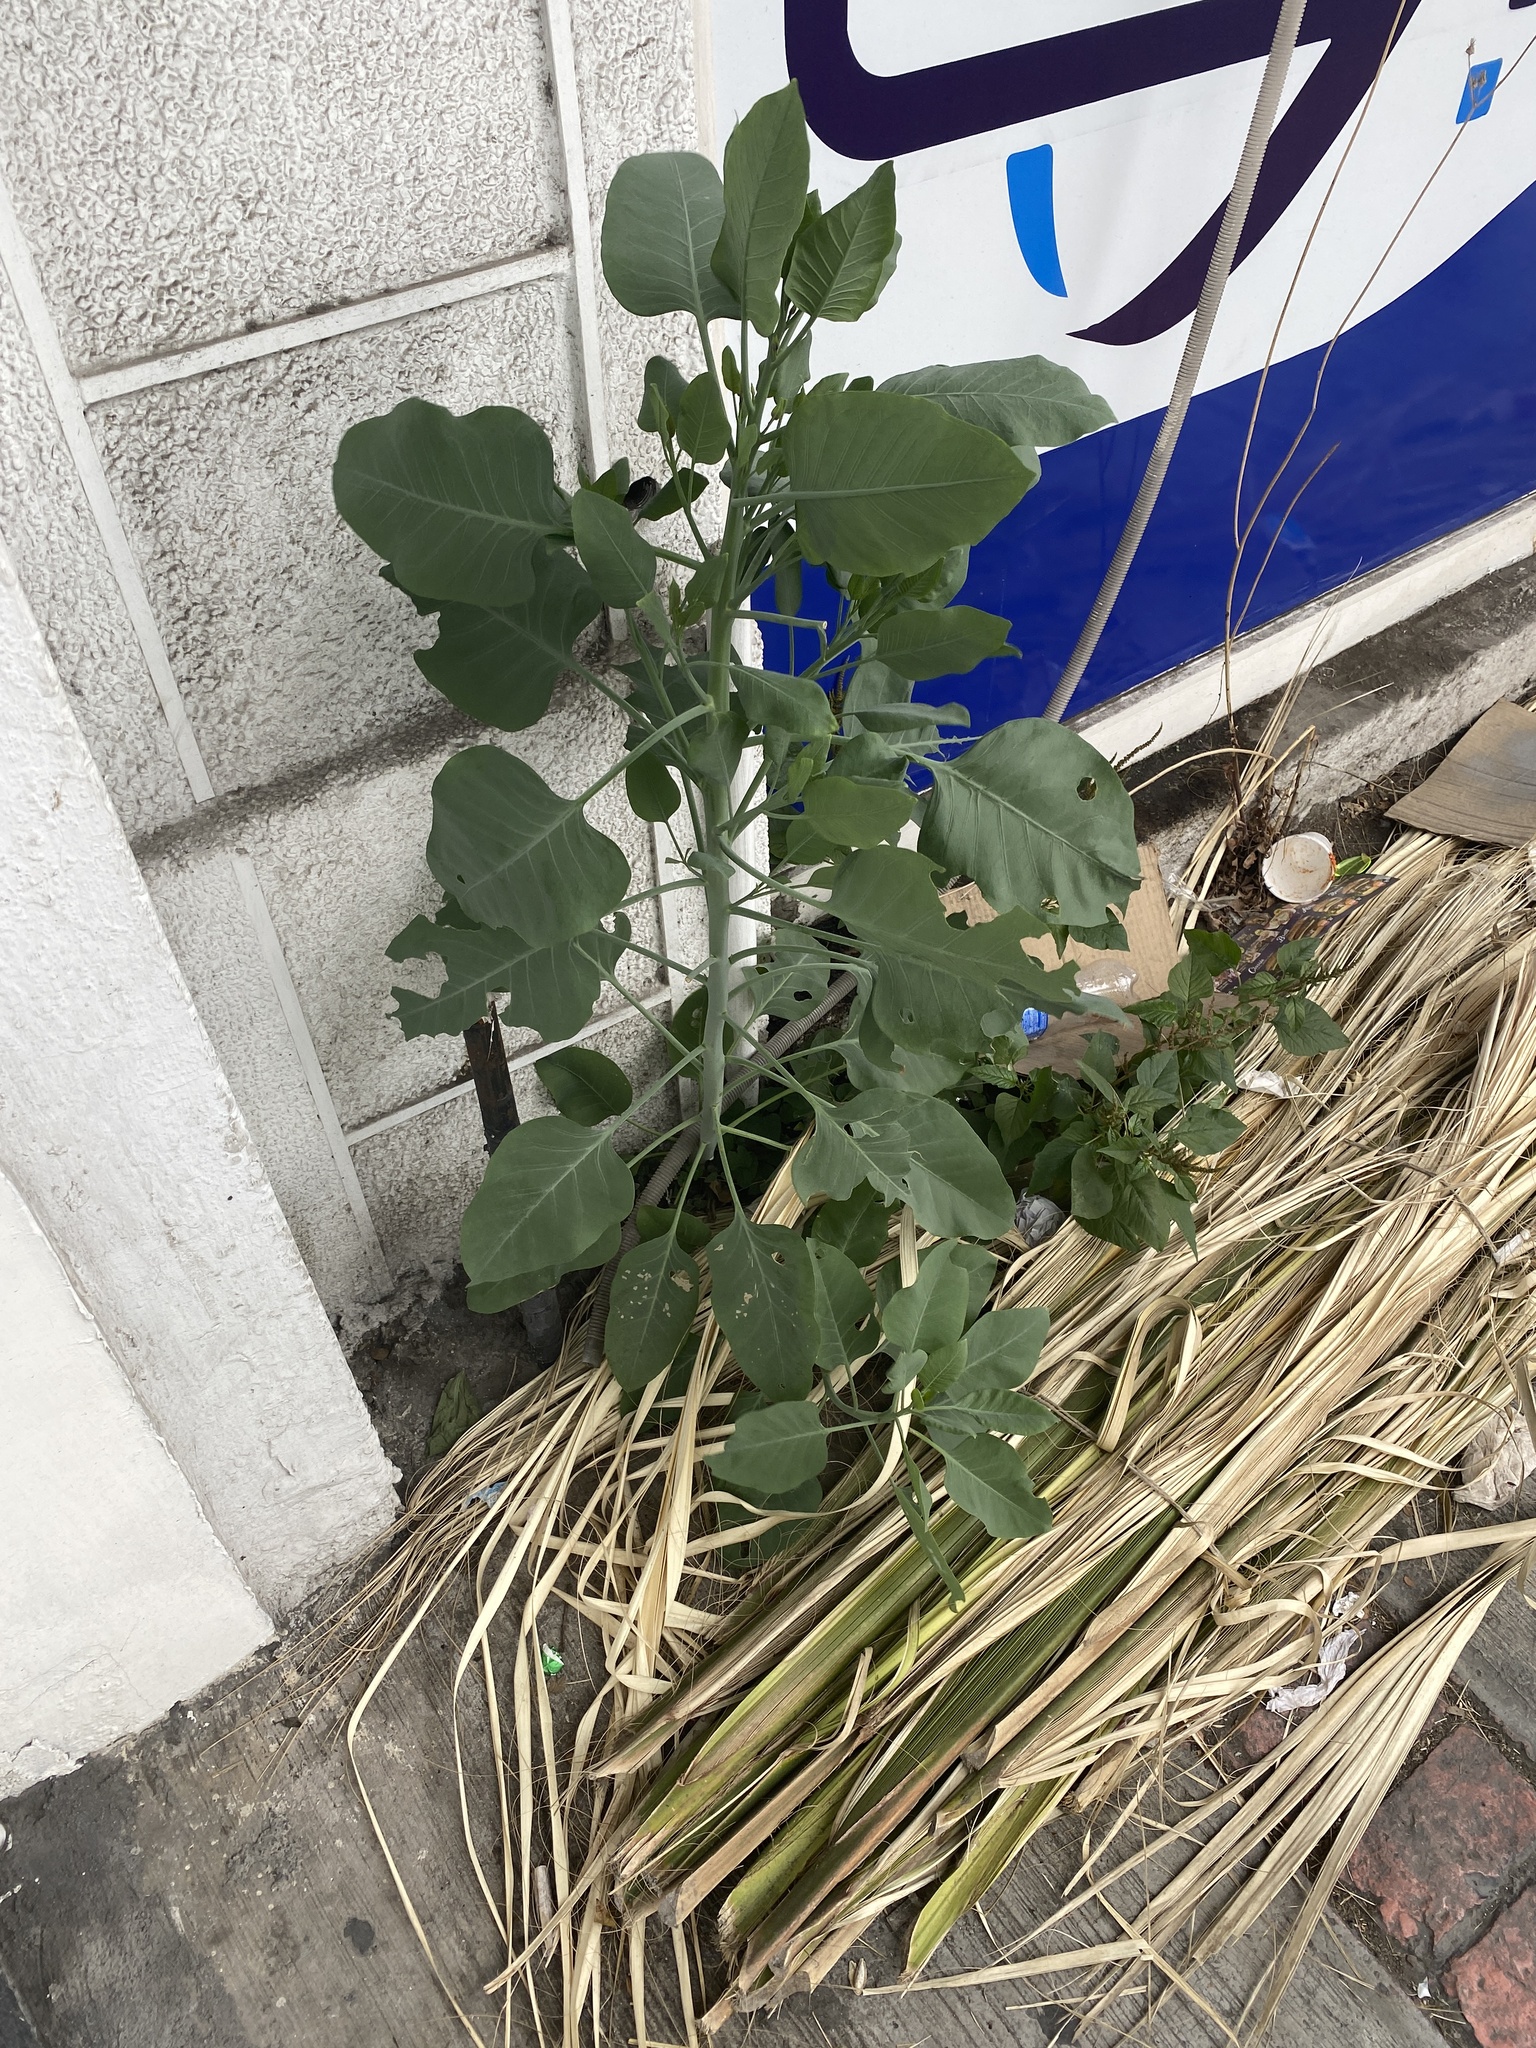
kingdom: Plantae
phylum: Tracheophyta
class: Magnoliopsida
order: Solanales
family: Solanaceae
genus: Nicotiana
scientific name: Nicotiana glauca
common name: Tree tobacco
